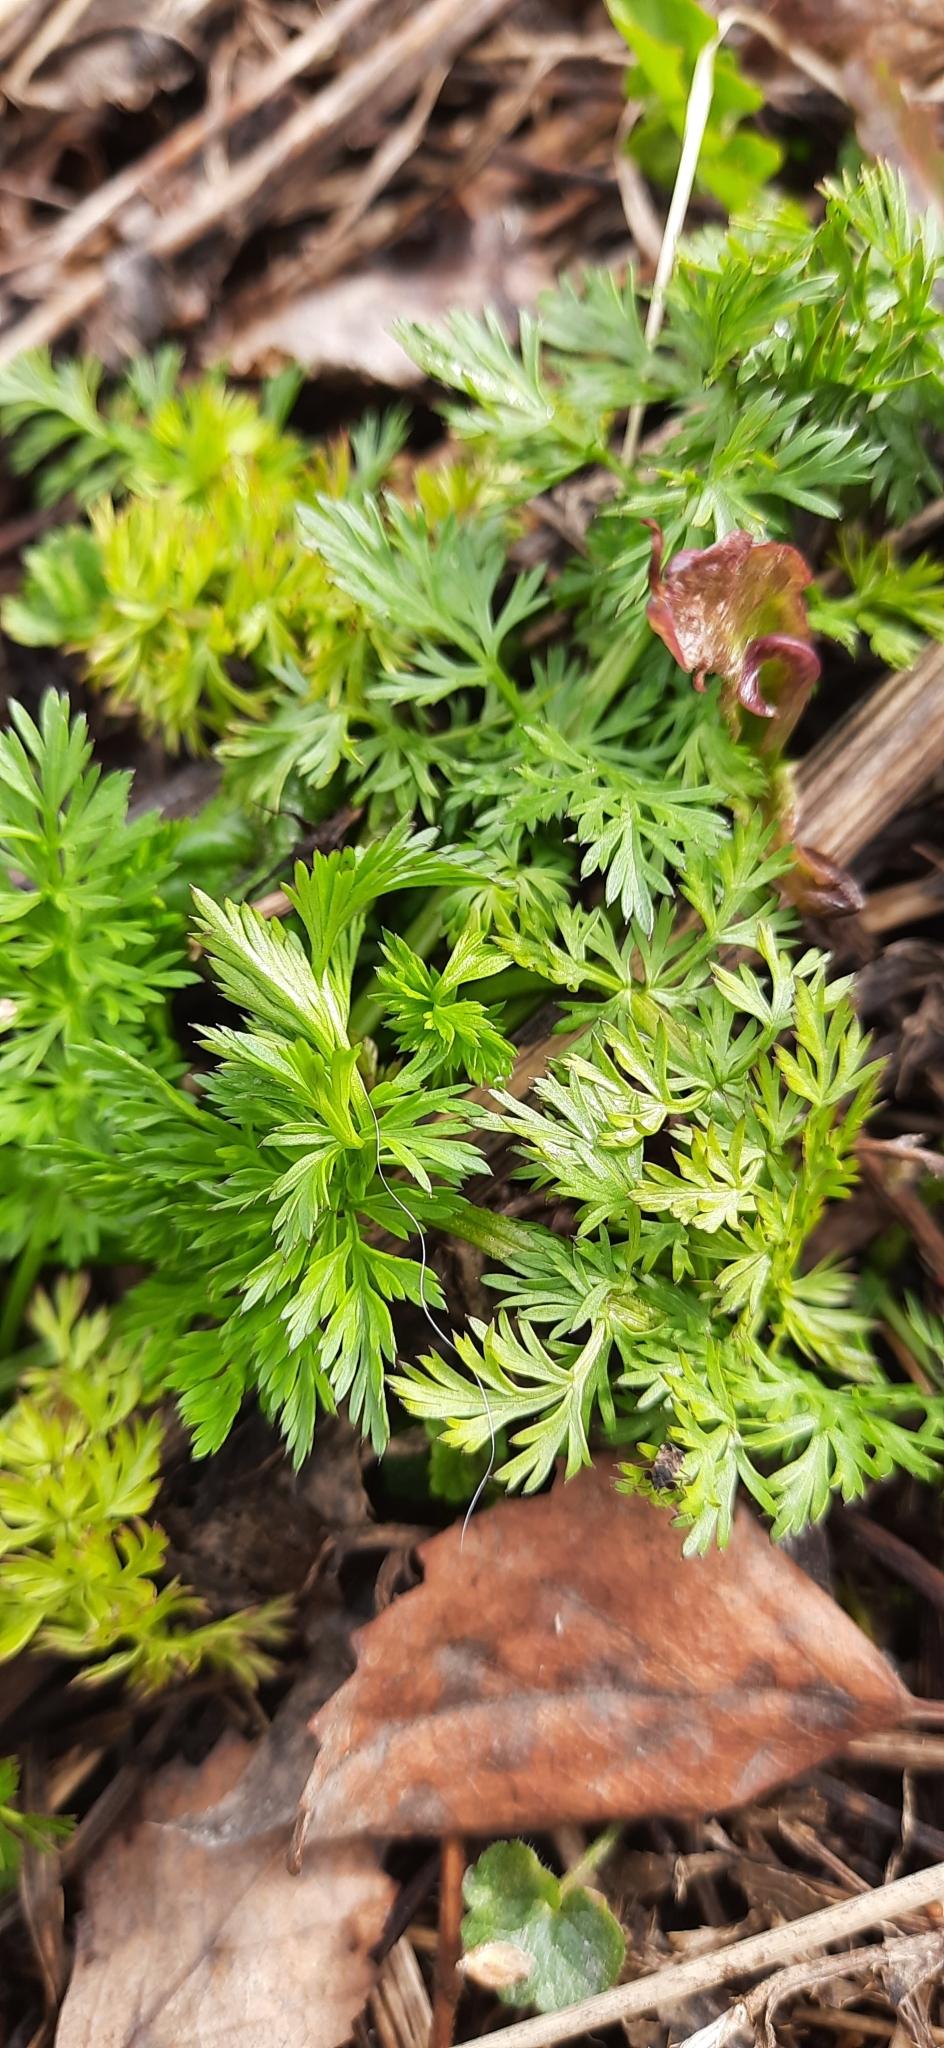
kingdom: Plantae
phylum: Tracheophyta
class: Magnoliopsida
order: Apiales
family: Apiaceae
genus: Carum
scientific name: Carum carvi
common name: Caraway
